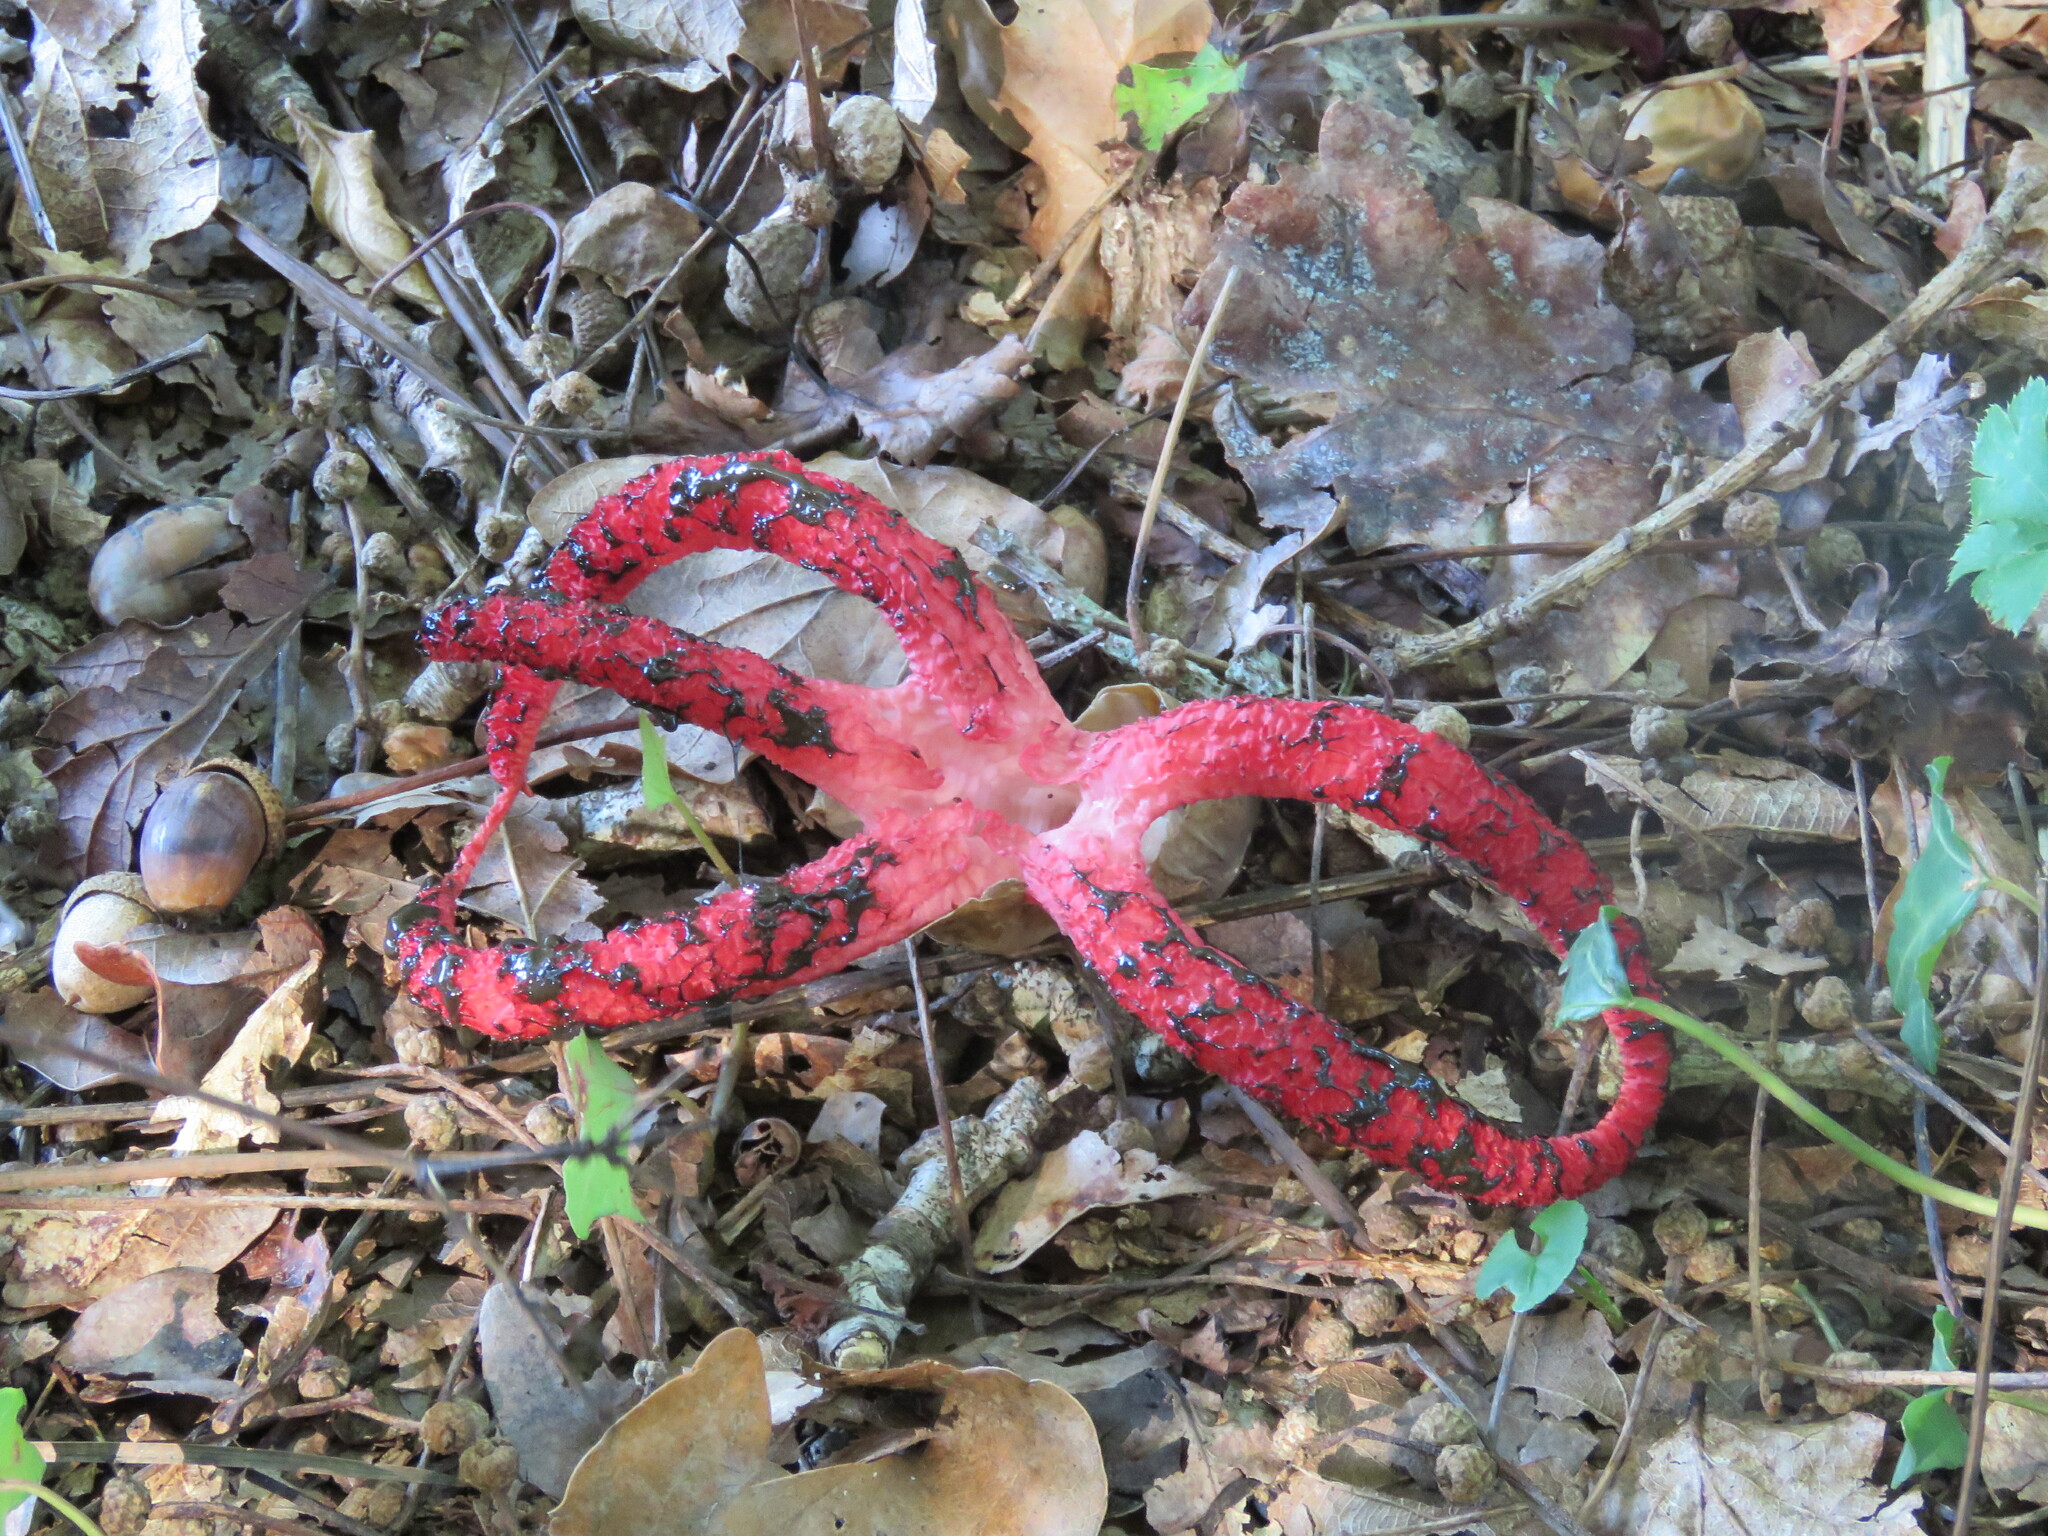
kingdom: Fungi
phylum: Basidiomycota
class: Agaricomycetes
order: Phallales
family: Phallaceae
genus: Clathrus
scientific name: Clathrus archeri
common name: Devil's fingers
